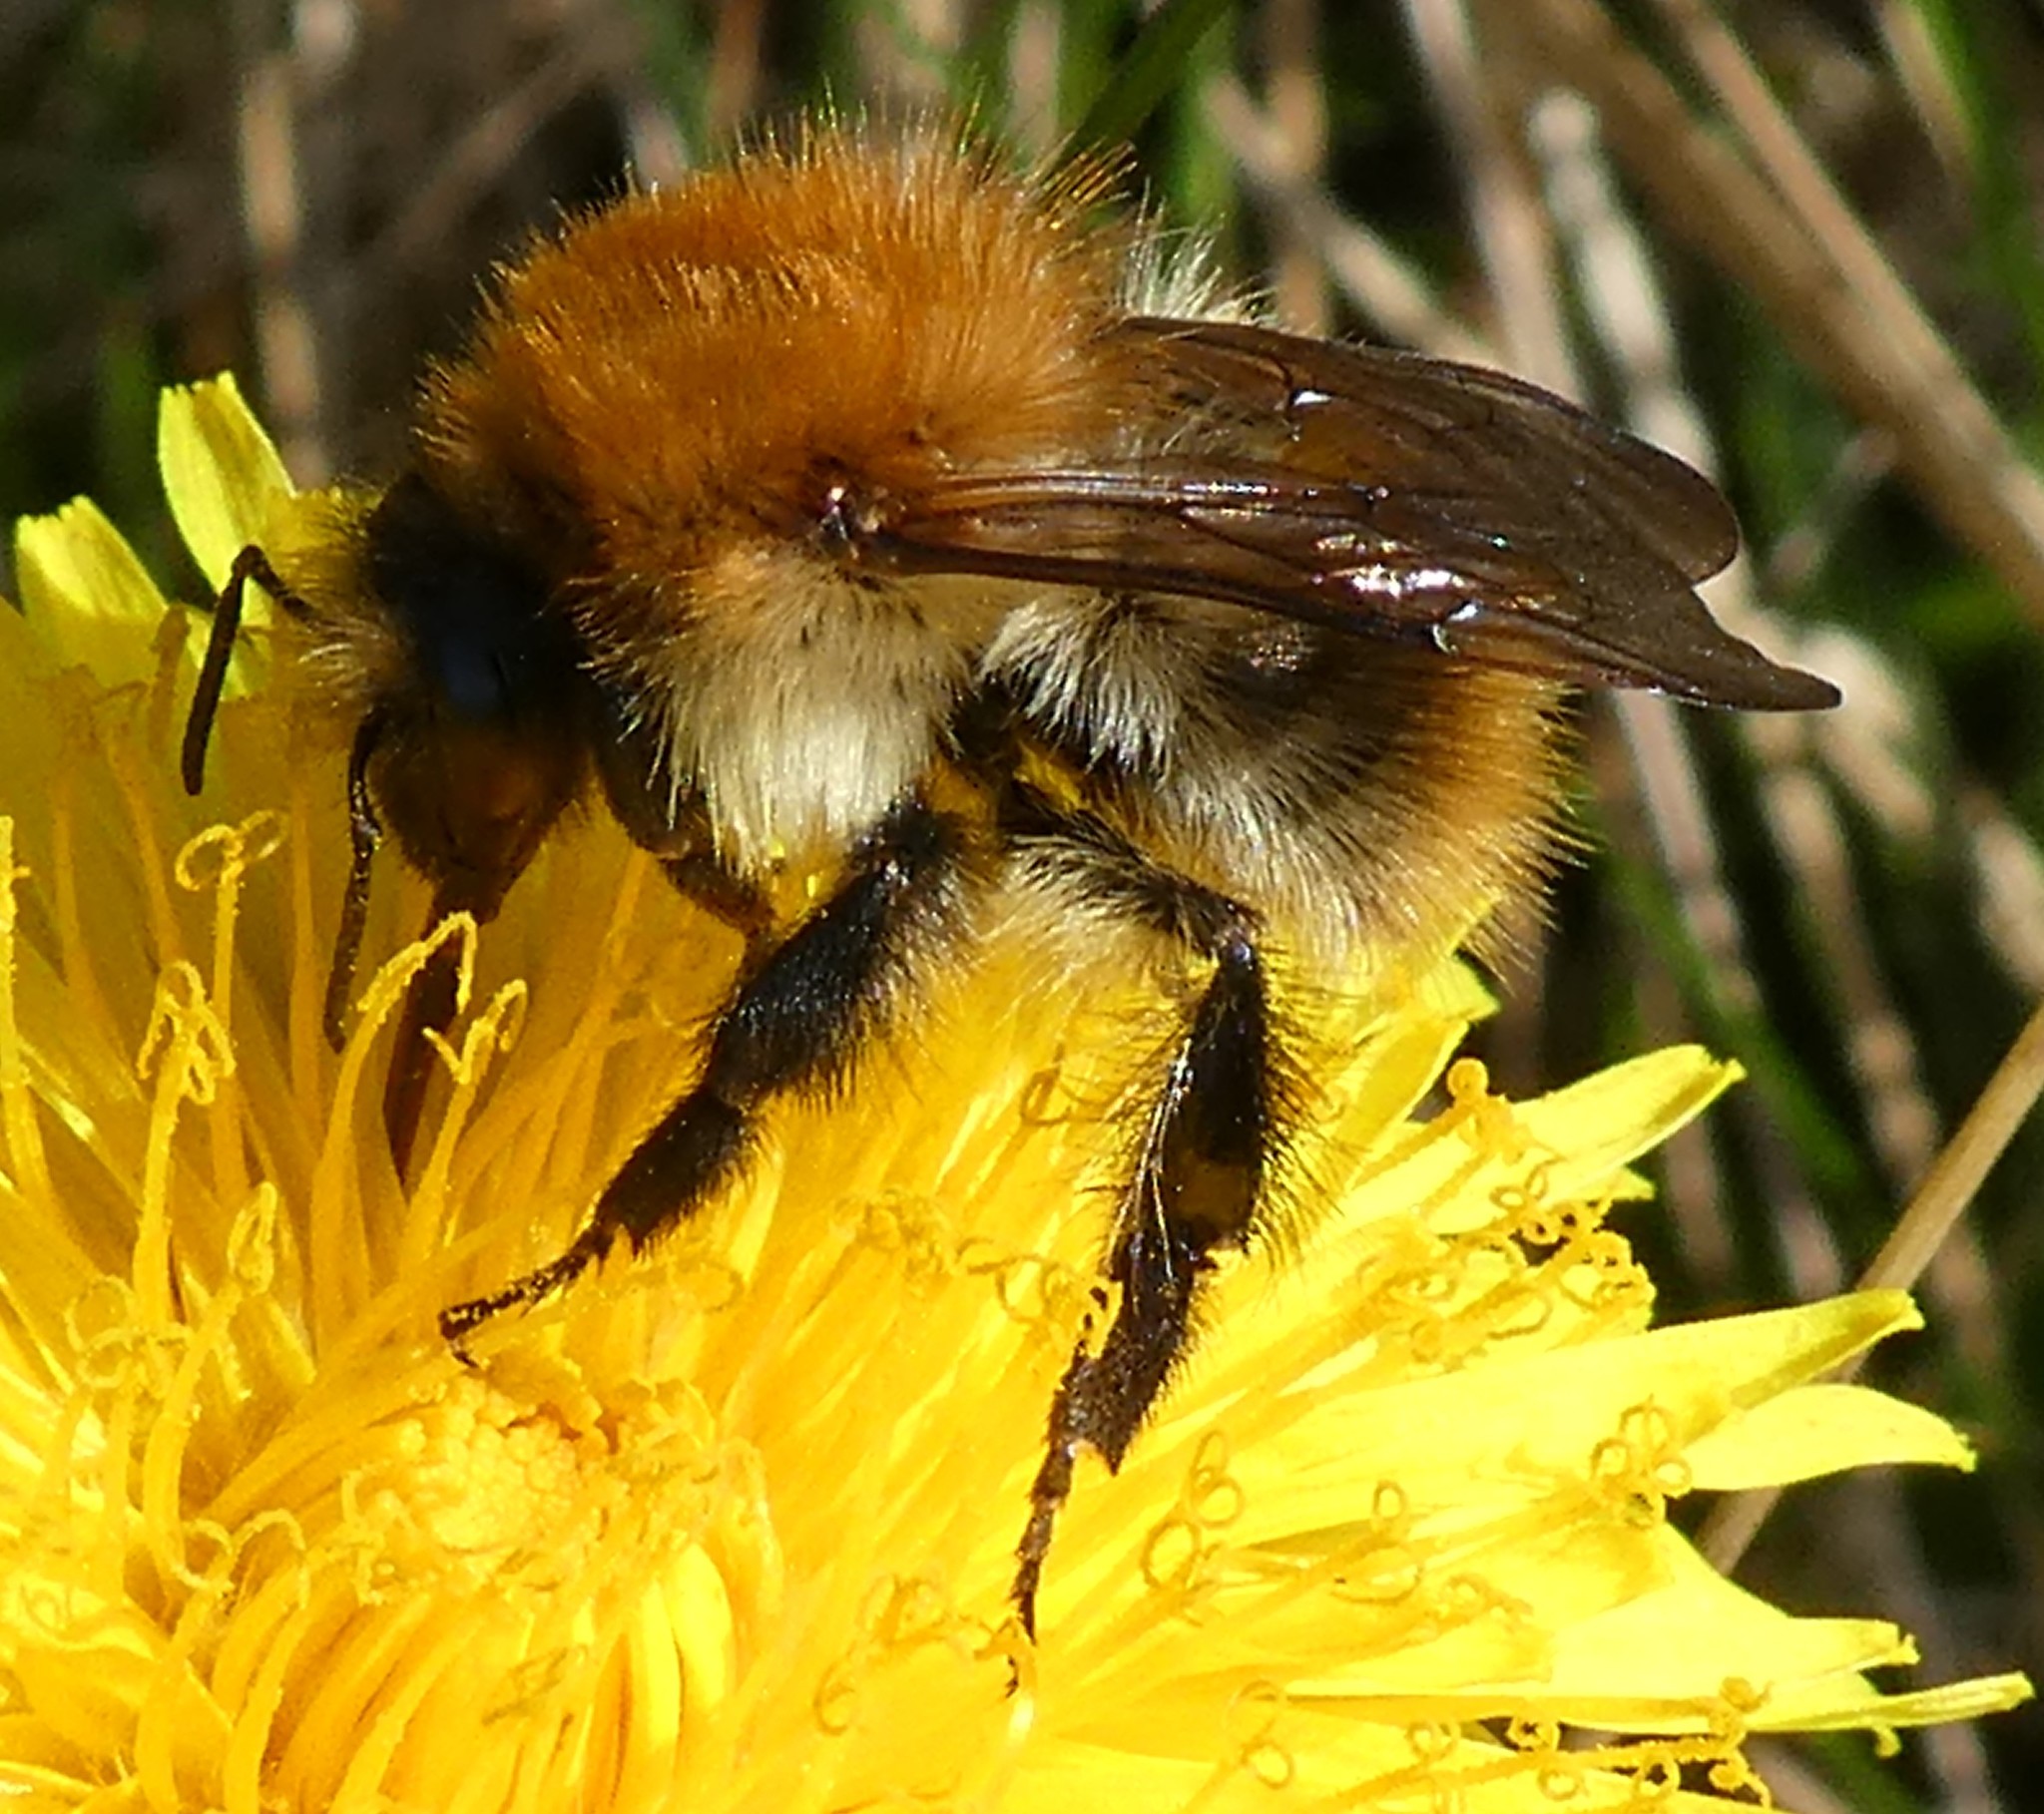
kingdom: Animalia
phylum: Arthropoda
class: Insecta
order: Hymenoptera
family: Apidae
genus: Bombus
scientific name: Bombus pascuorum
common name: Common carder bee
